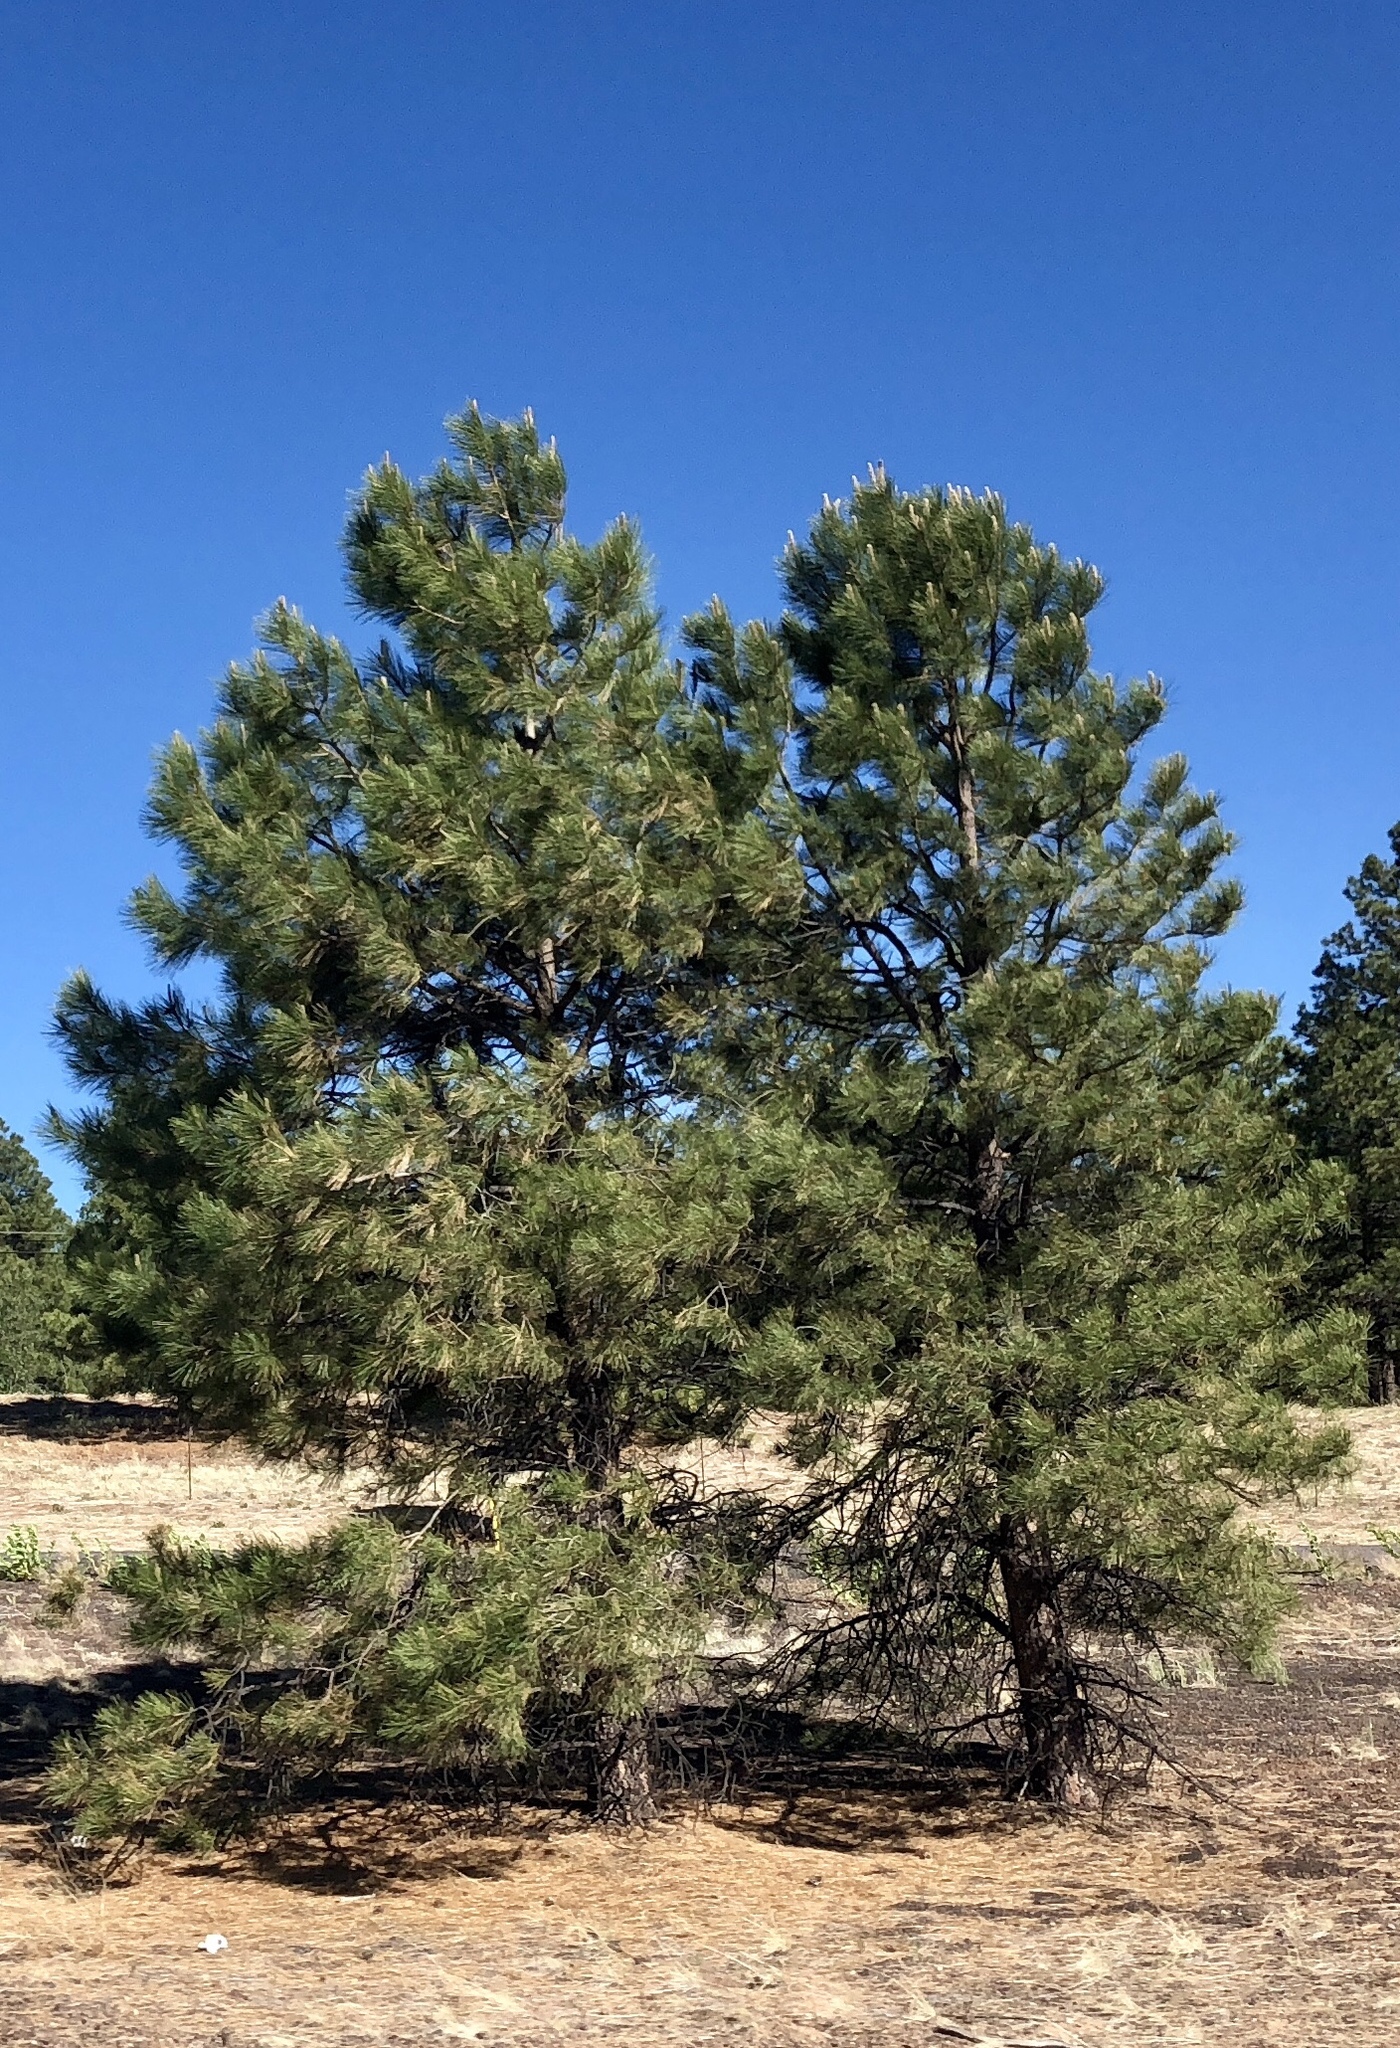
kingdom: Plantae
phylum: Tracheophyta
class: Pinopsida
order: Pinales
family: Pinaceae
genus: Pinus
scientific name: Pinus ponderosa
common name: Western yellow-pine
